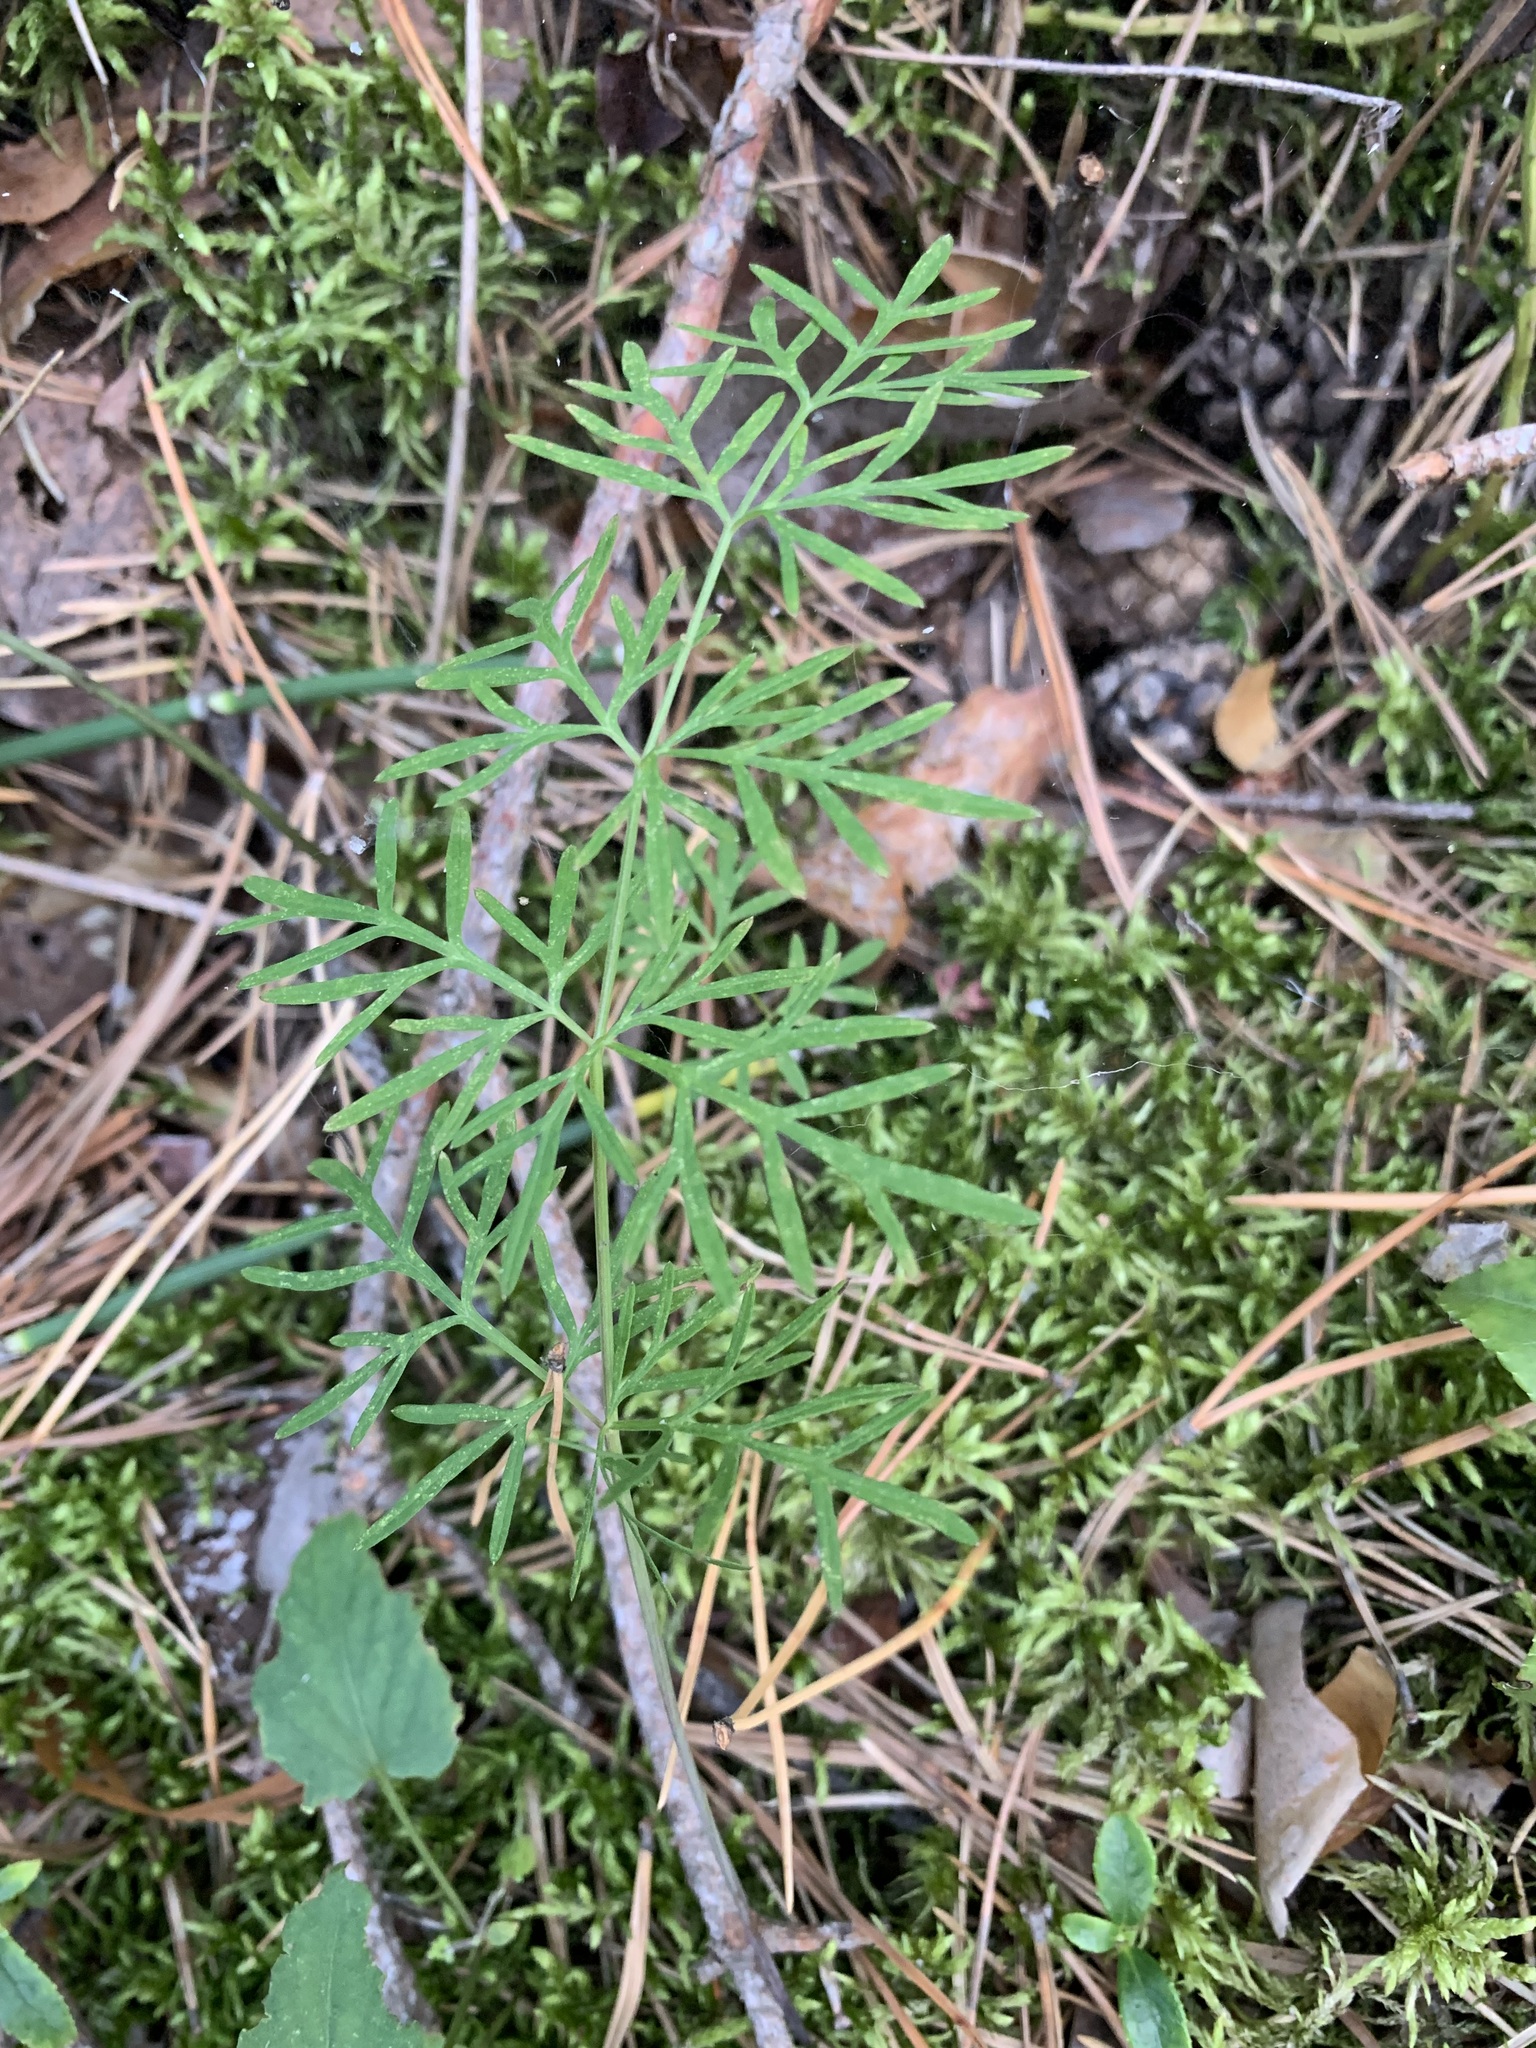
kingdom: Plantae
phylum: Tracheophyta
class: Magnoliopsida
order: Apiales
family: Apiaceae
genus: Kadenia
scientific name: Kadenia dubia
